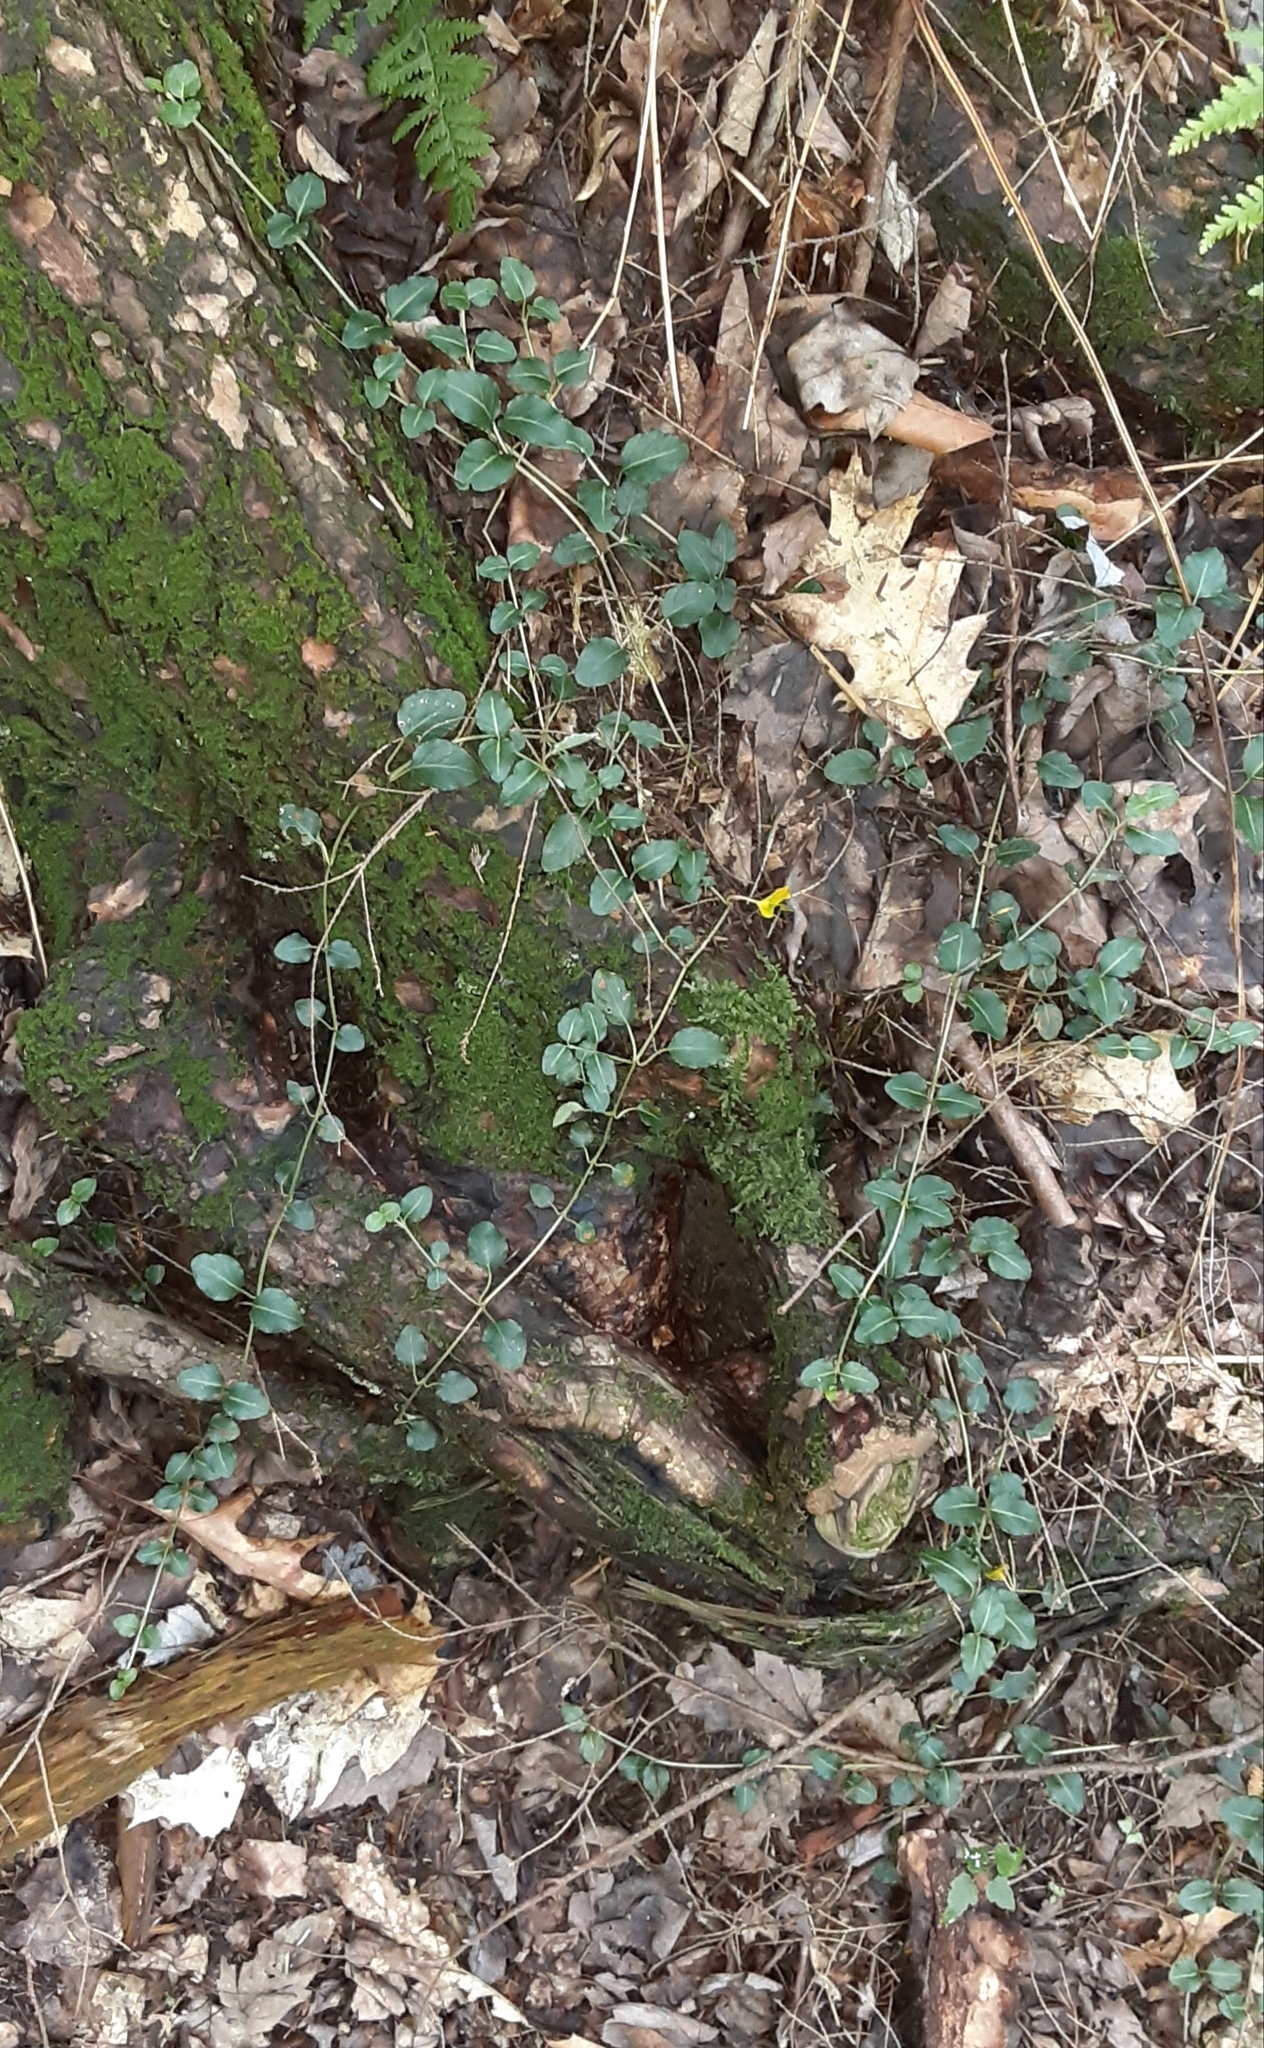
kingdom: Plantae
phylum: Tracheophyta
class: Magnoliopsida
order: Gentianales
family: Rubiaceae
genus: Mitchella
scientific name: Mitchella repens
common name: Partridge-berry
